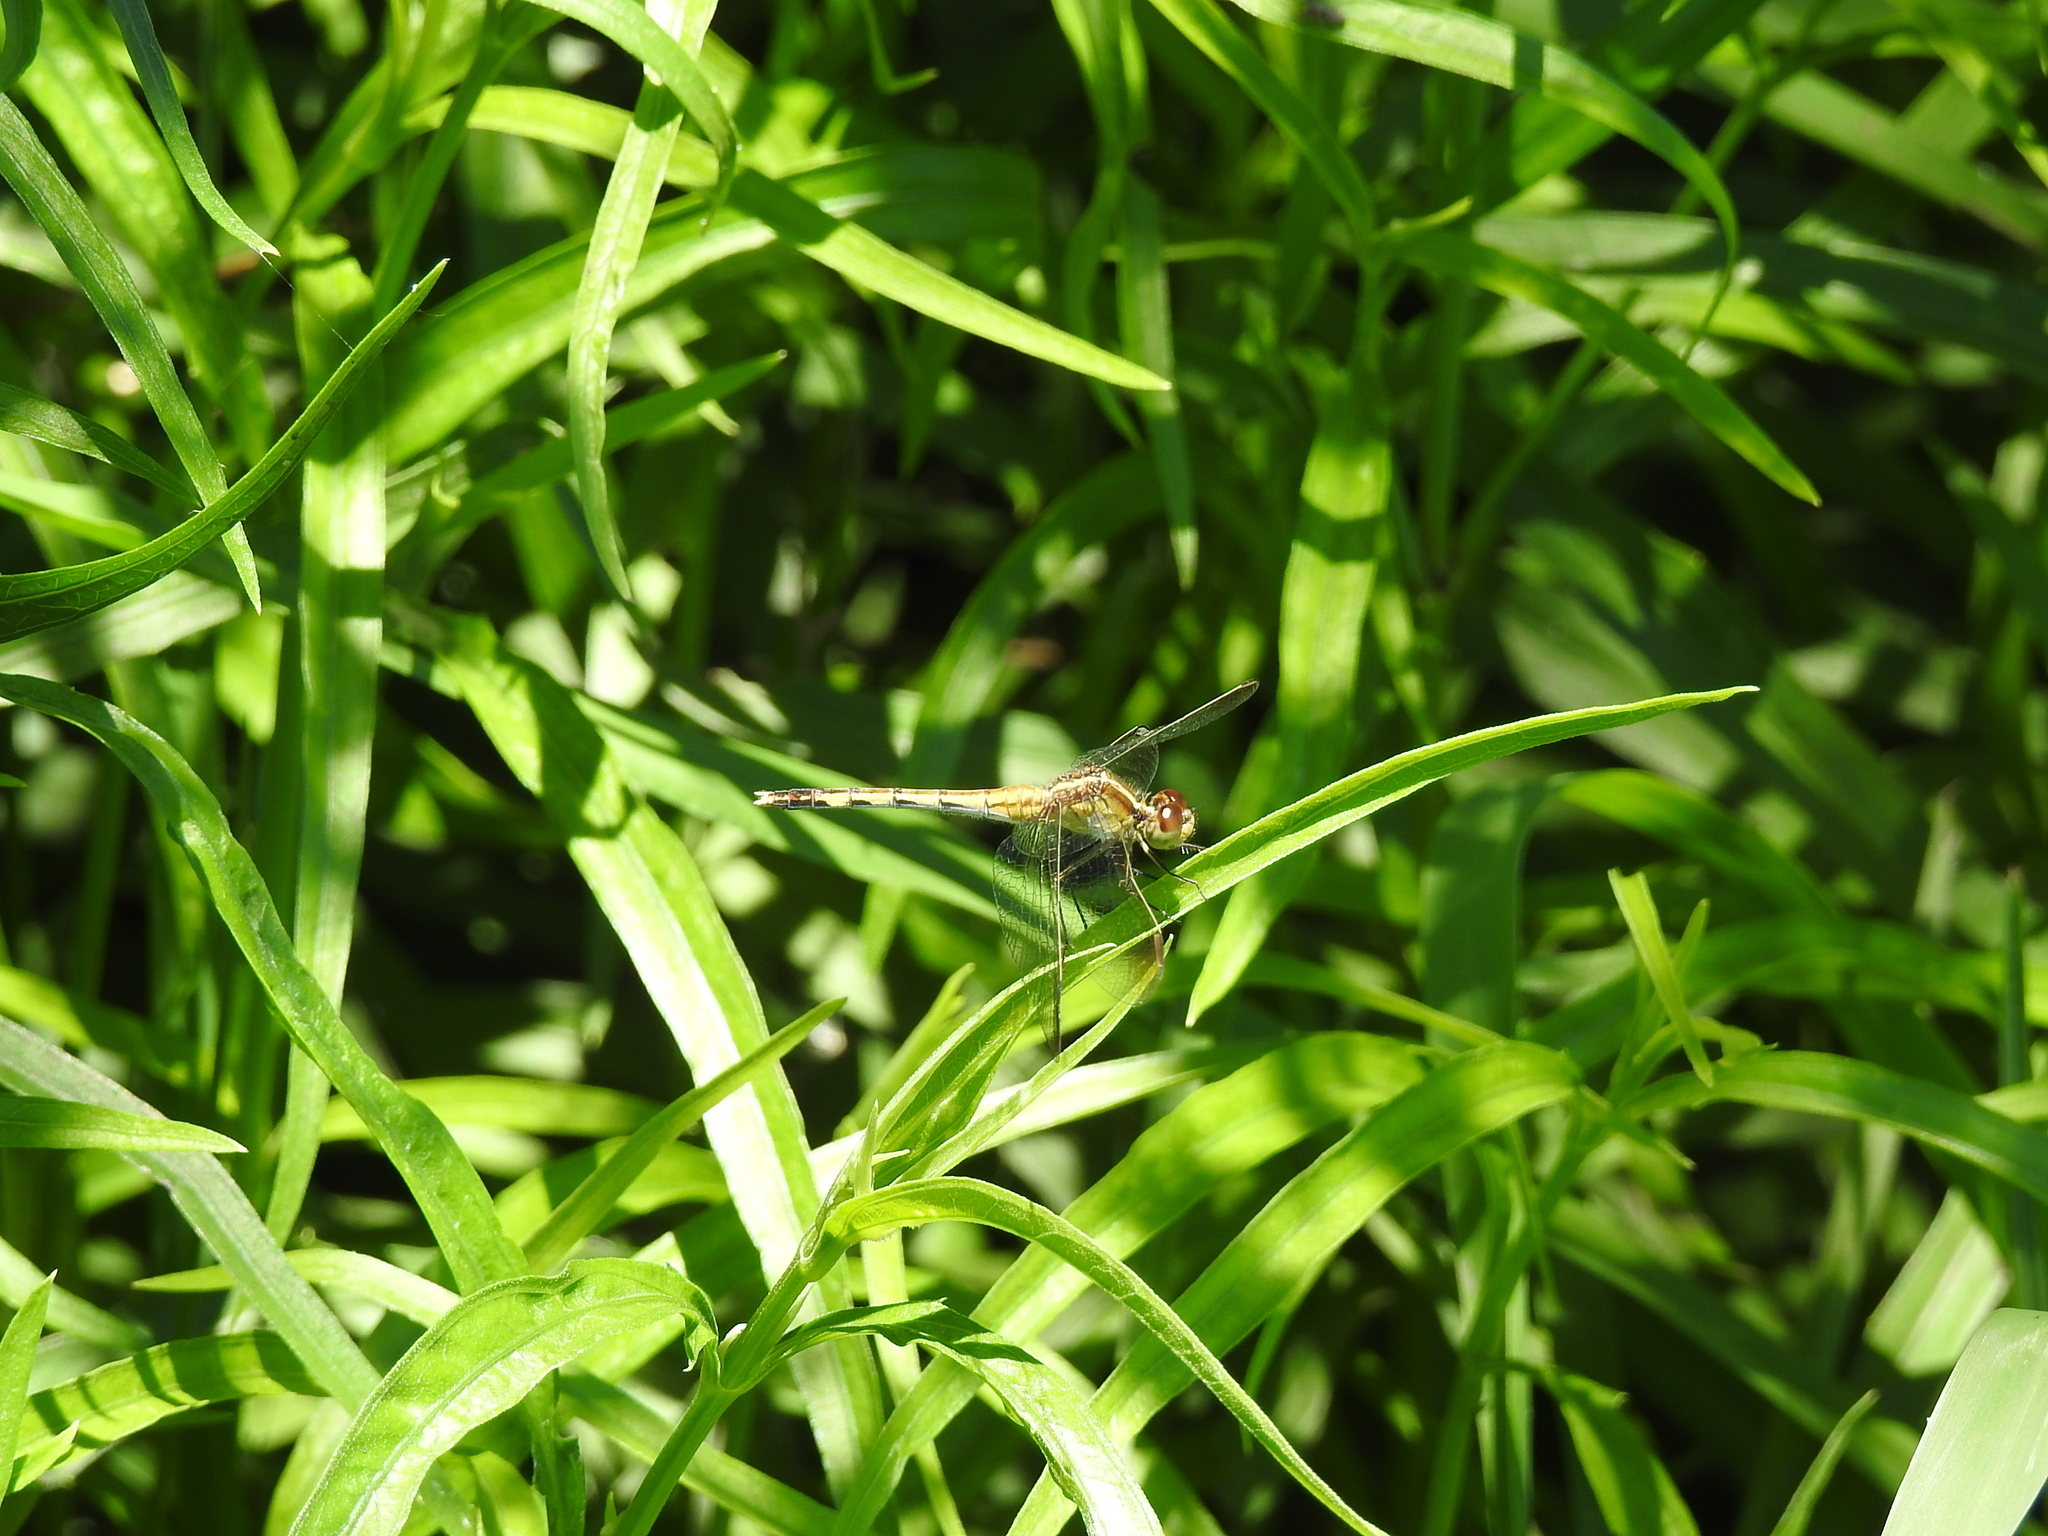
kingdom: Animalia
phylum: Arthropoda
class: Insecta
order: Odonata
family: Libellulidae
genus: Erythrodiplax
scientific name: Erythrodiplax nigricans
